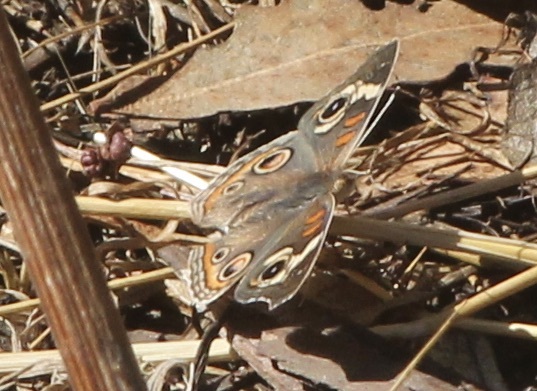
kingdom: Animalia
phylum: Arthropoda
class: Insecta
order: Lepidoptera
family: Nymphalidae
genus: Junonia
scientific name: Junonia grisea
